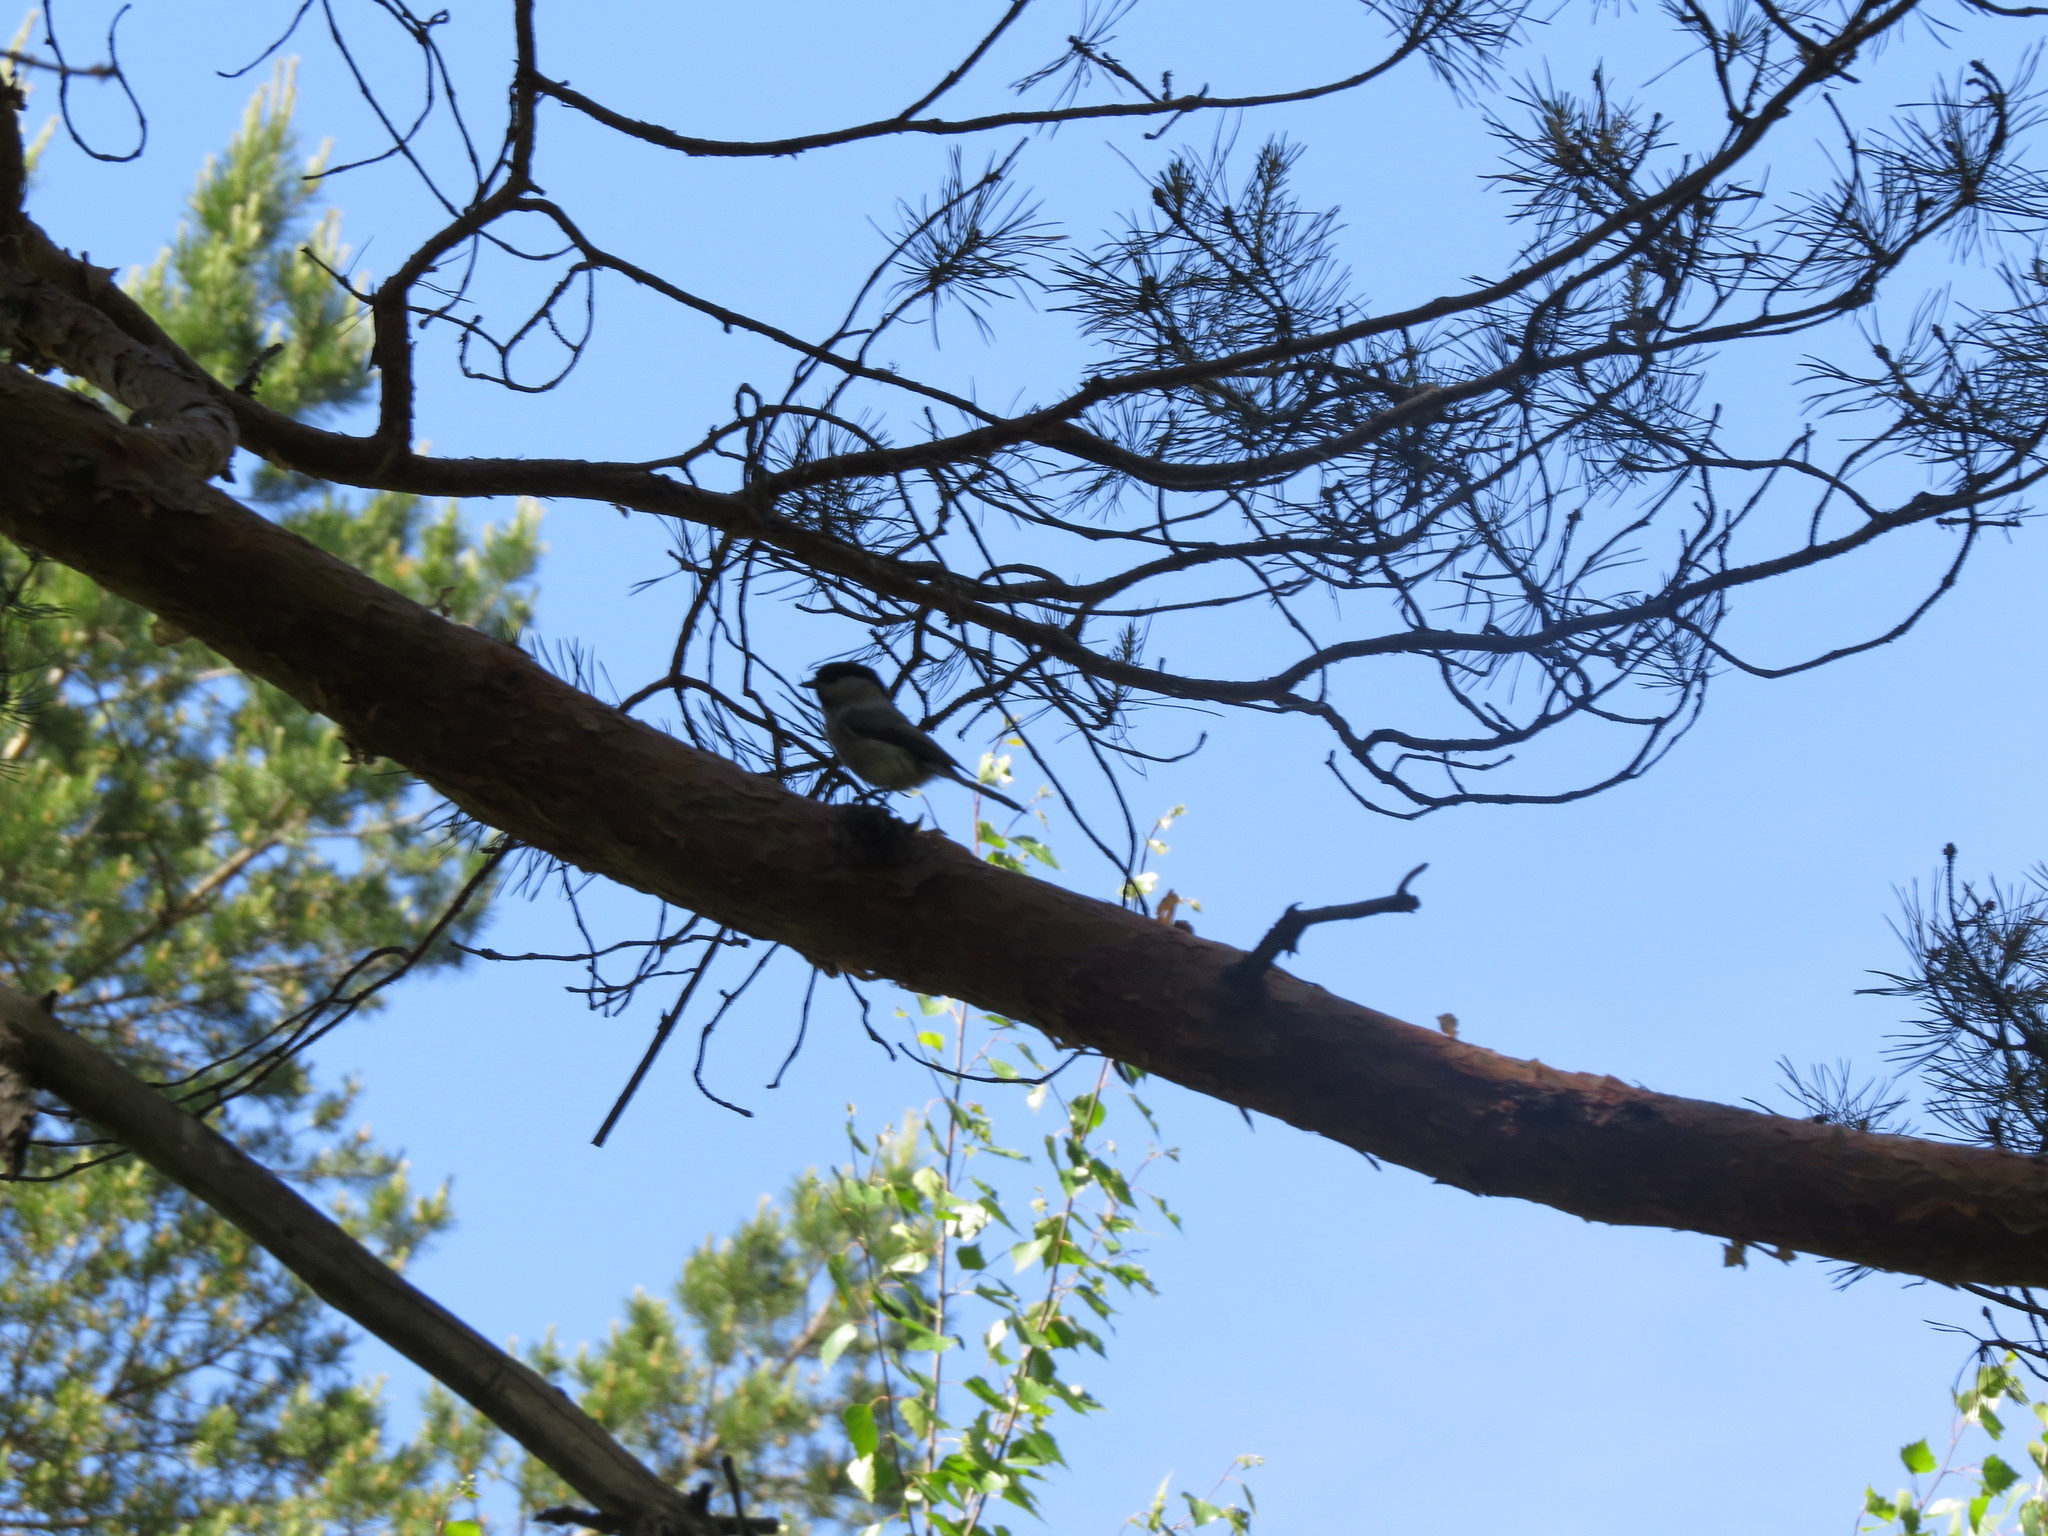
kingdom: Animalia
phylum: Chordata
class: Aves
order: Passeriformes
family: Paridae
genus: Poecile
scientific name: Poecile montanus
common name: Willow tit
